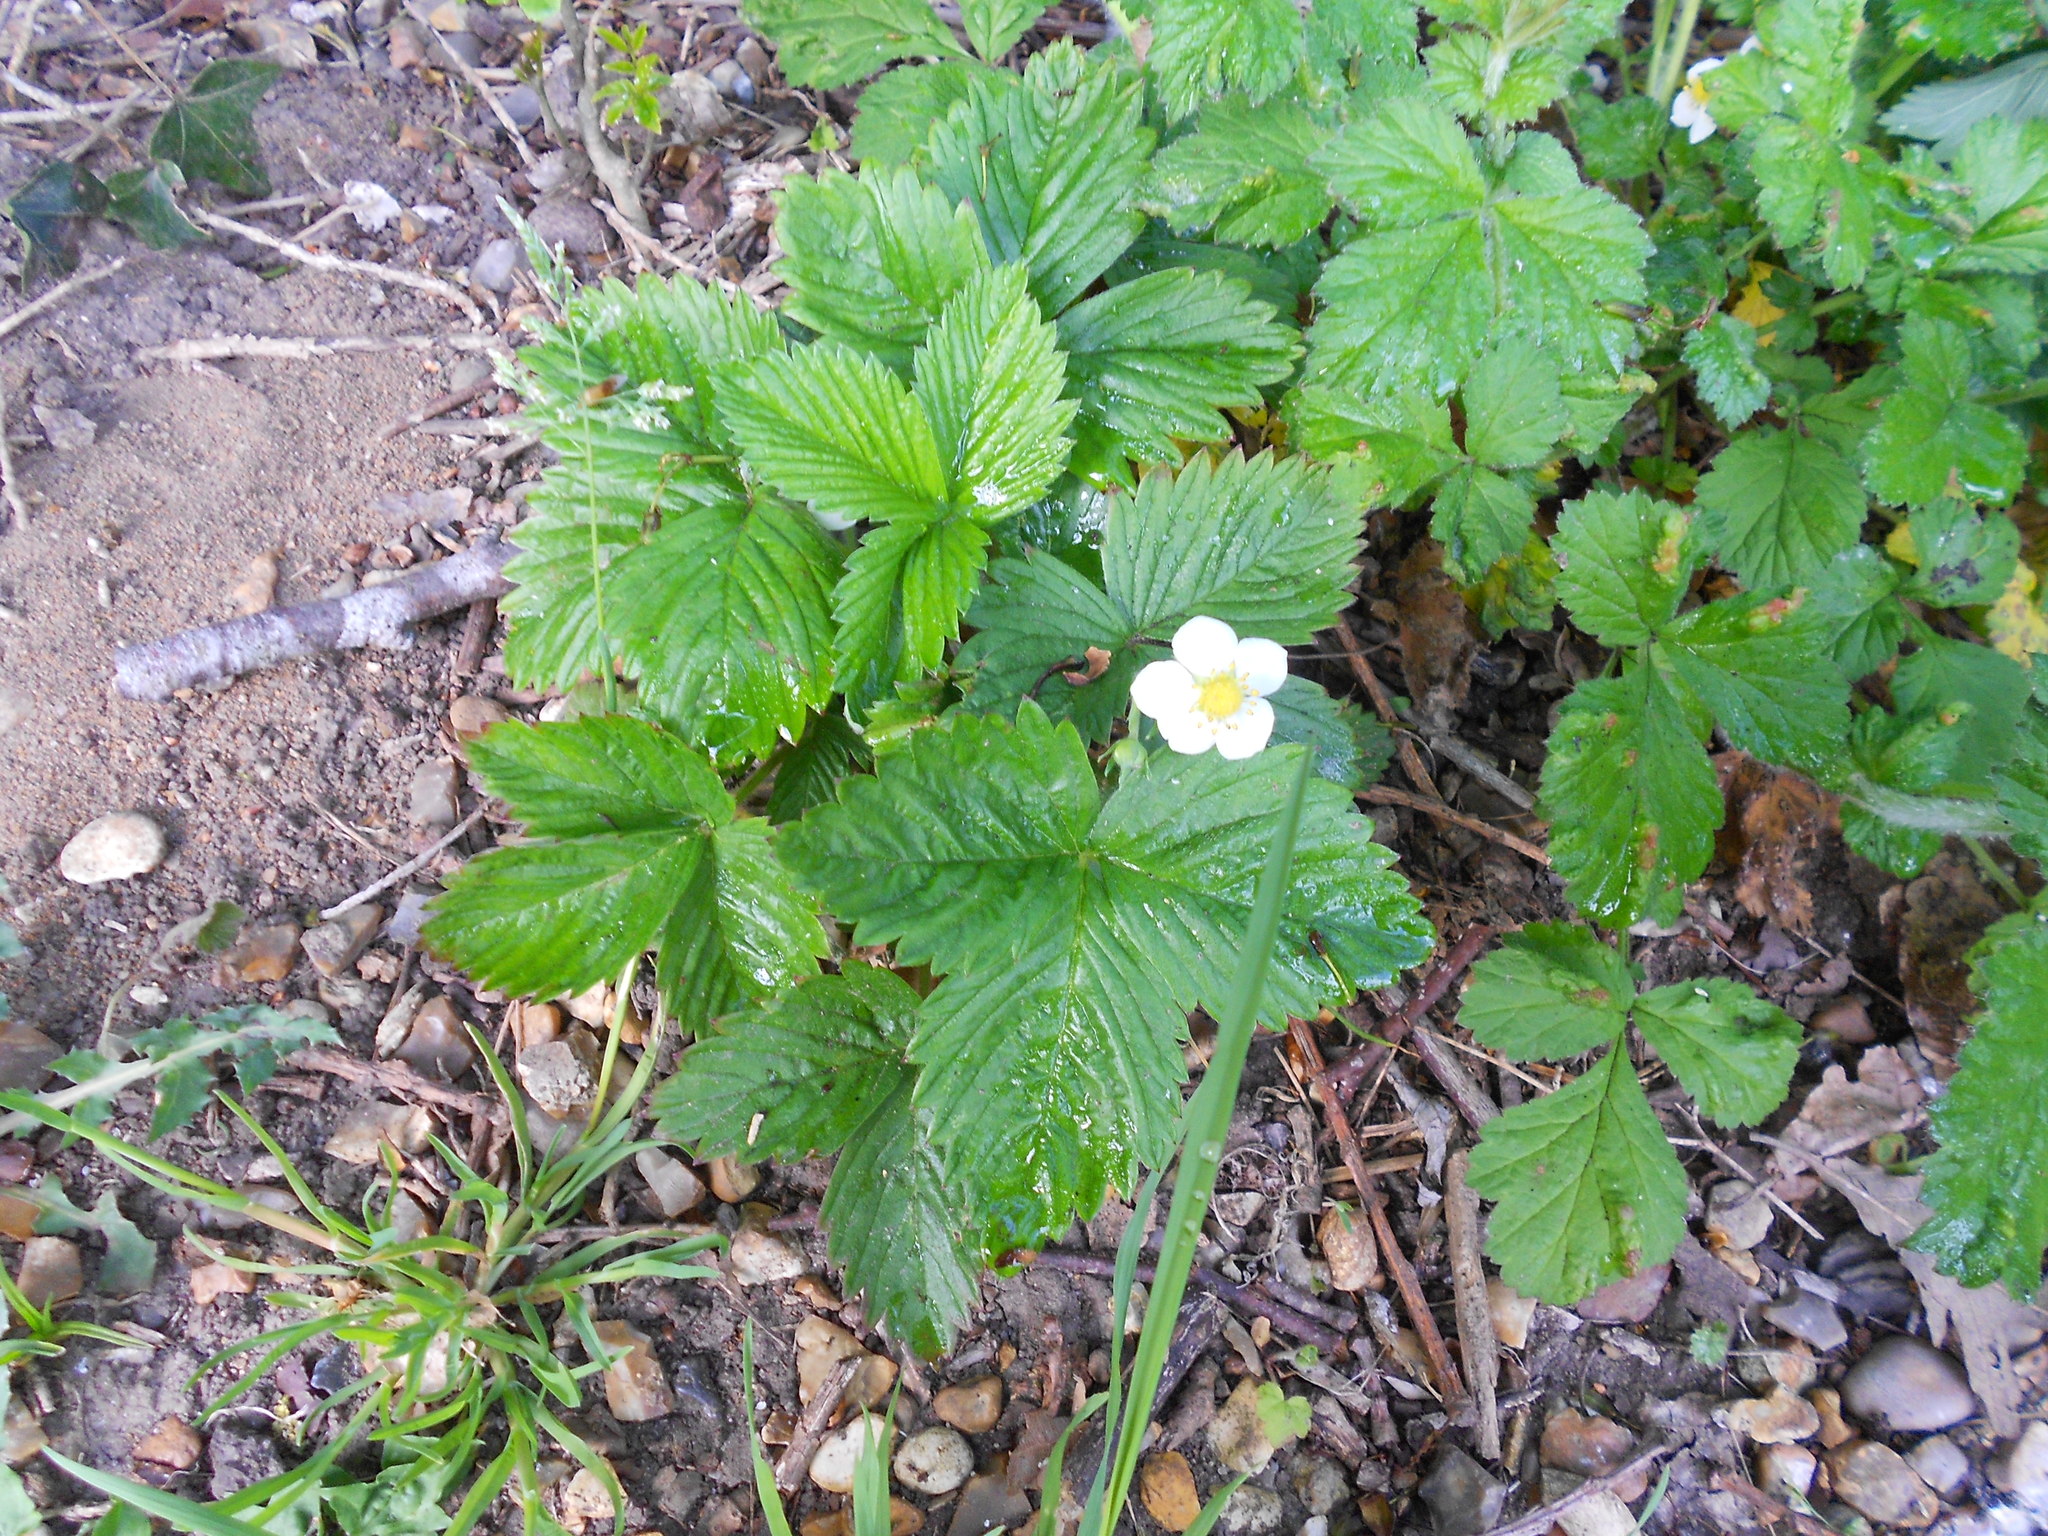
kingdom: Plantae
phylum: Tracheophyta
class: Magnoliopsida
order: Rosales
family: Rosaceae
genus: Fragaria
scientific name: Fragaria vesca
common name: Wild strawberry
